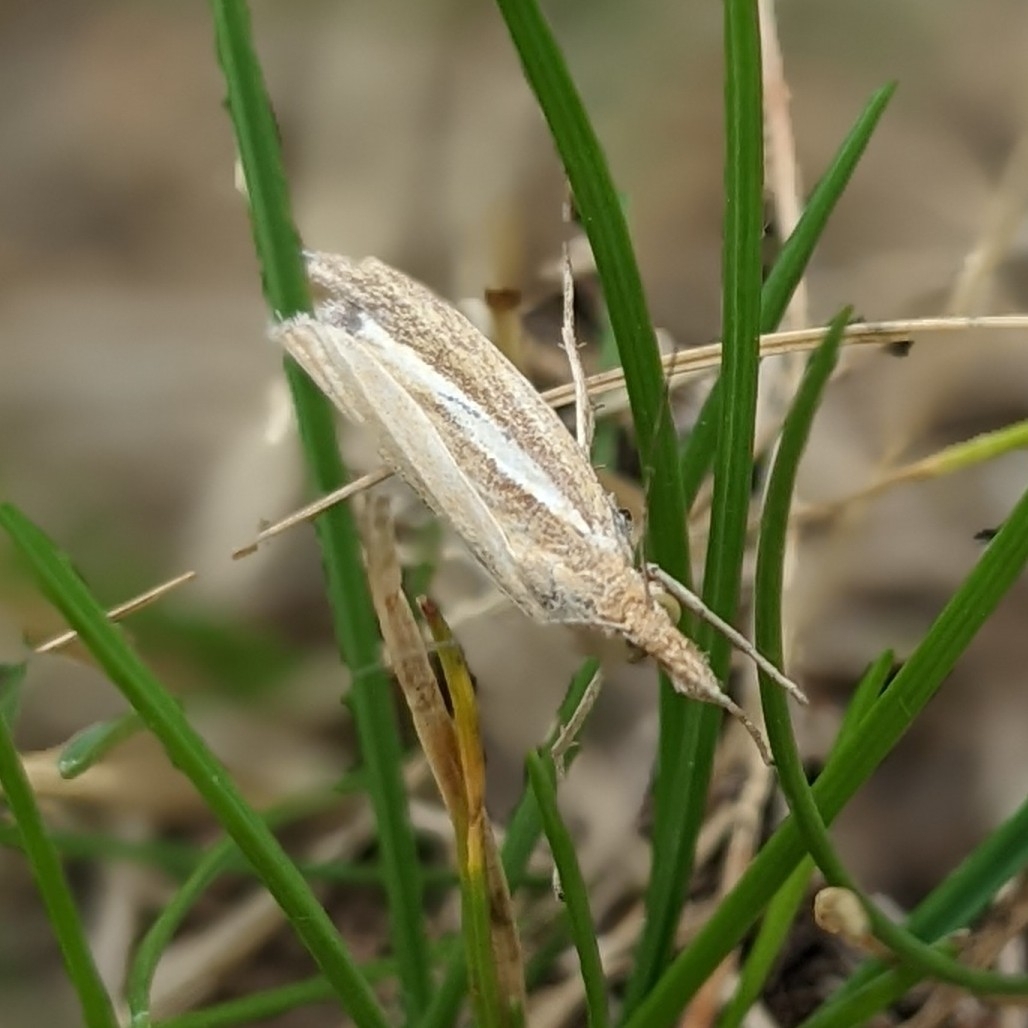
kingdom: Animalia
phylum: Arthropoda
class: Insecta
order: Lepidoptera
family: Crambidae
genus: Agriphila
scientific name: Agriphila tristellus
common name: Common grass-veneer
